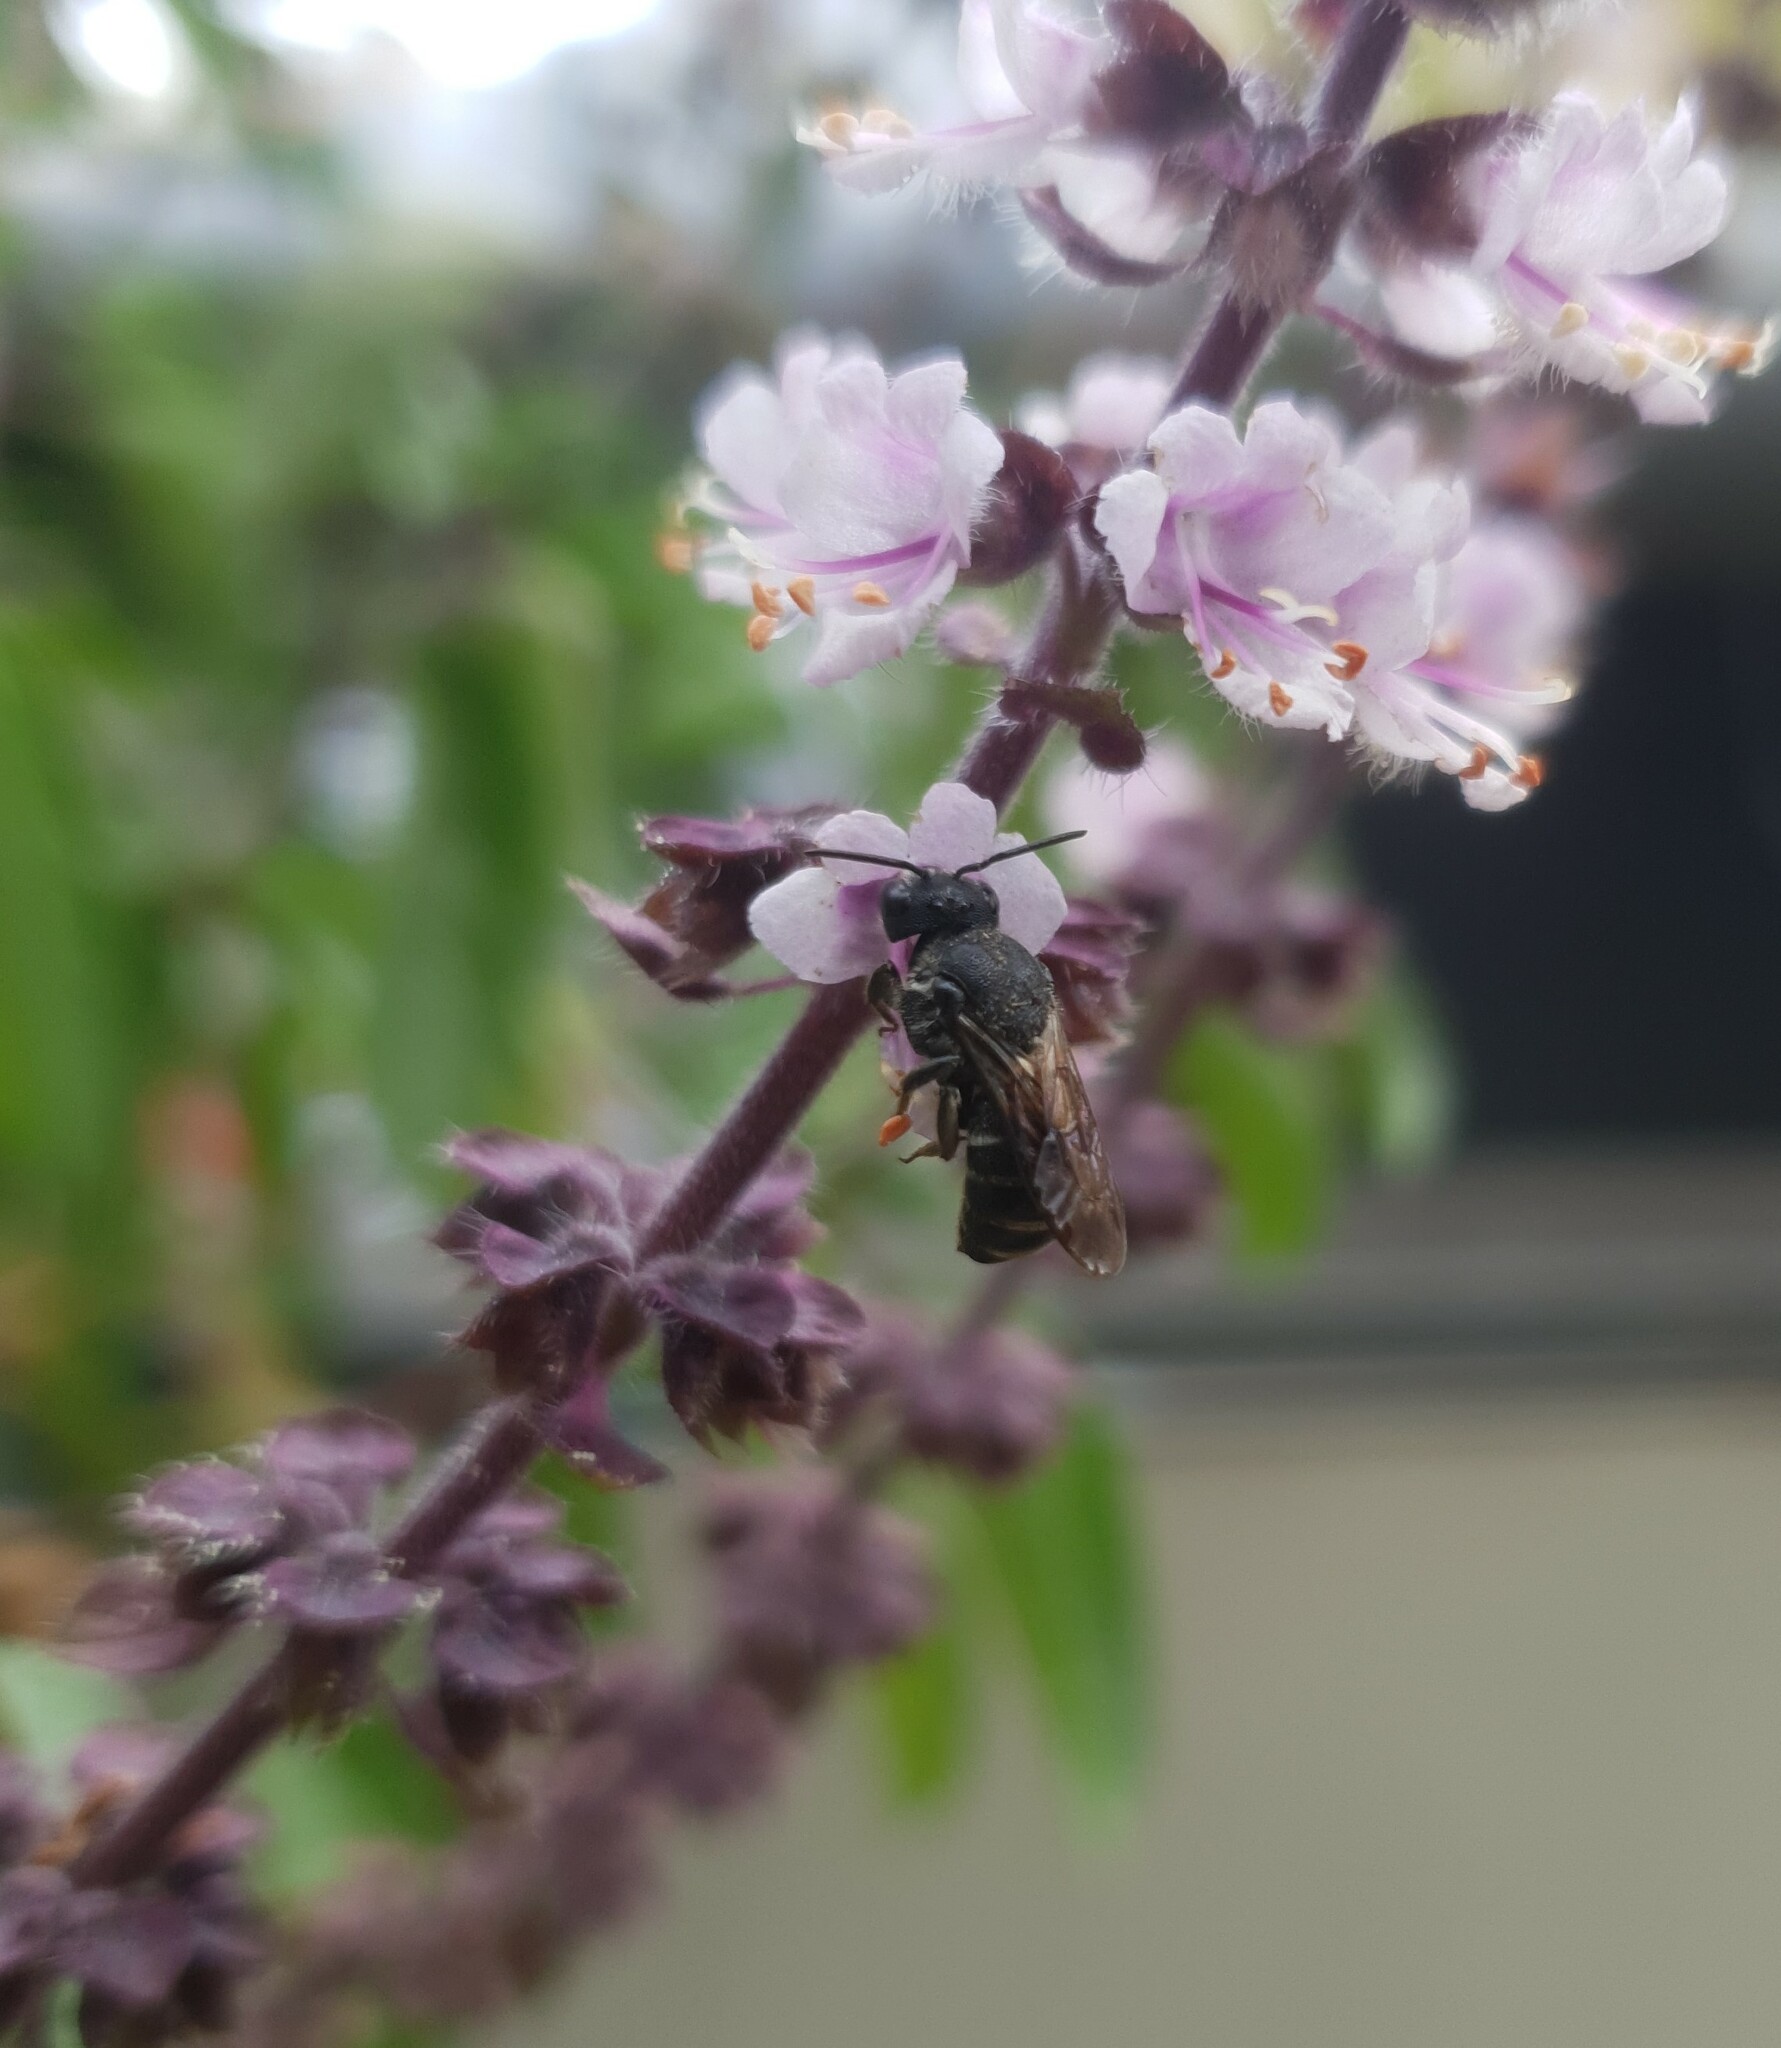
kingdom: Animalia
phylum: Arthropoda
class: Insecta
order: Hymenoptera
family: Megachilidae
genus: Stelis
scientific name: Stelis punctulatissima
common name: Banded dark bee
